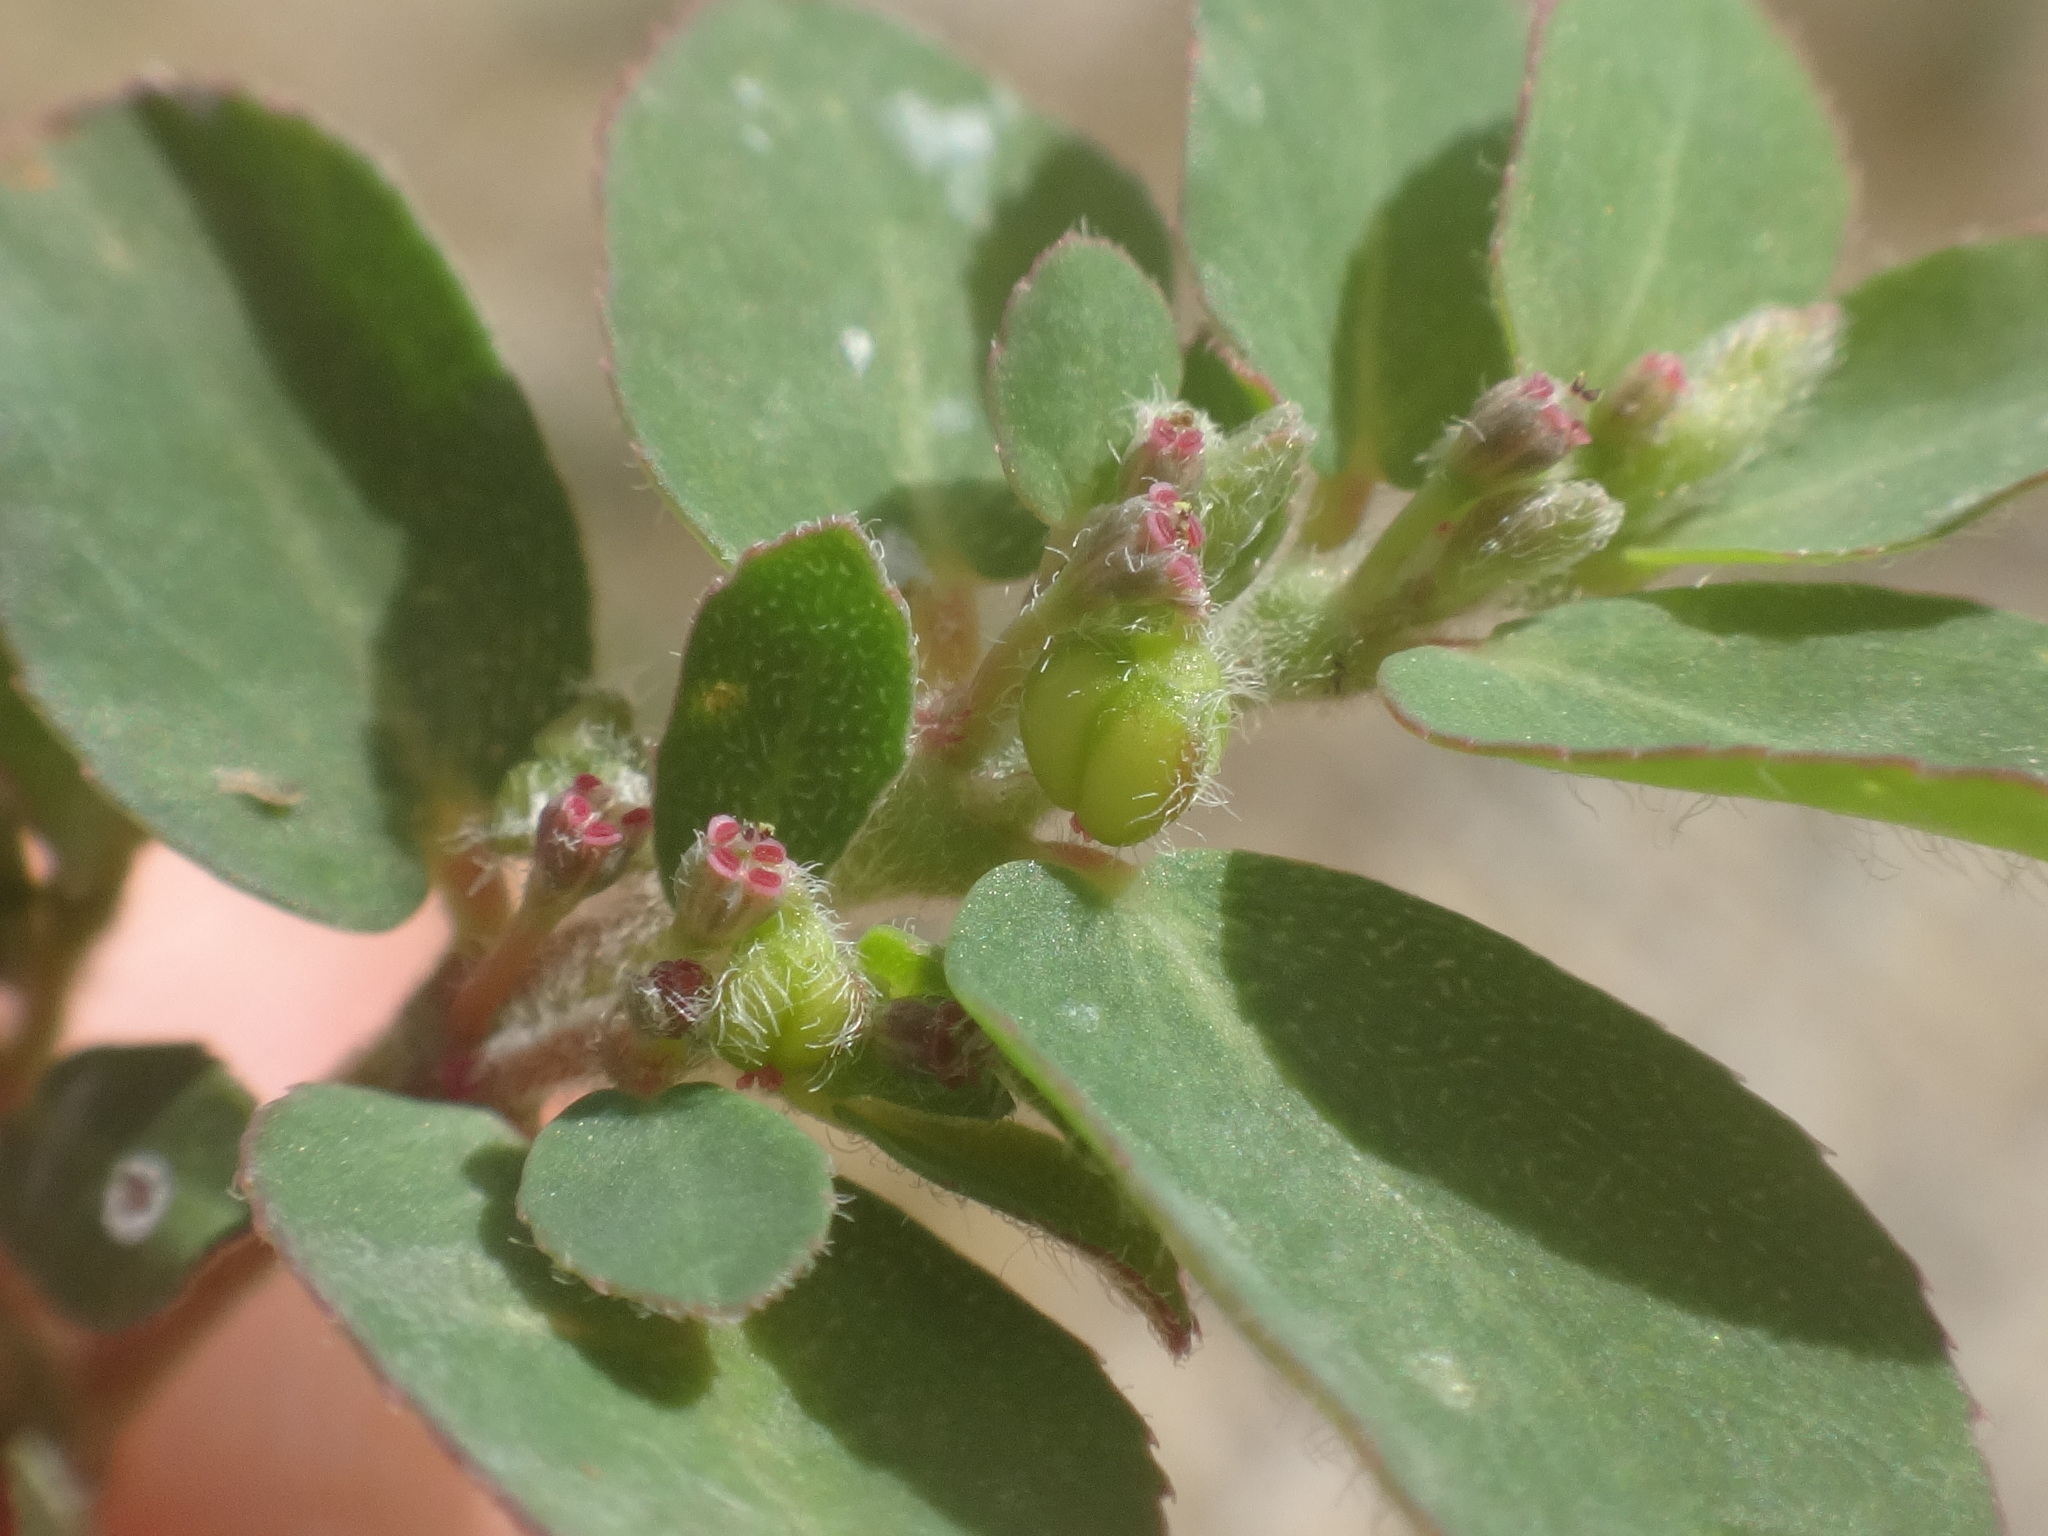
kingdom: Plantae
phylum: Tracheophyta
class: Magnoliopsida
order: Malpighiales
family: Euphorbiaceae
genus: Euphorbia
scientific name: Euphorbia prostrata
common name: Prostrate sandmat
